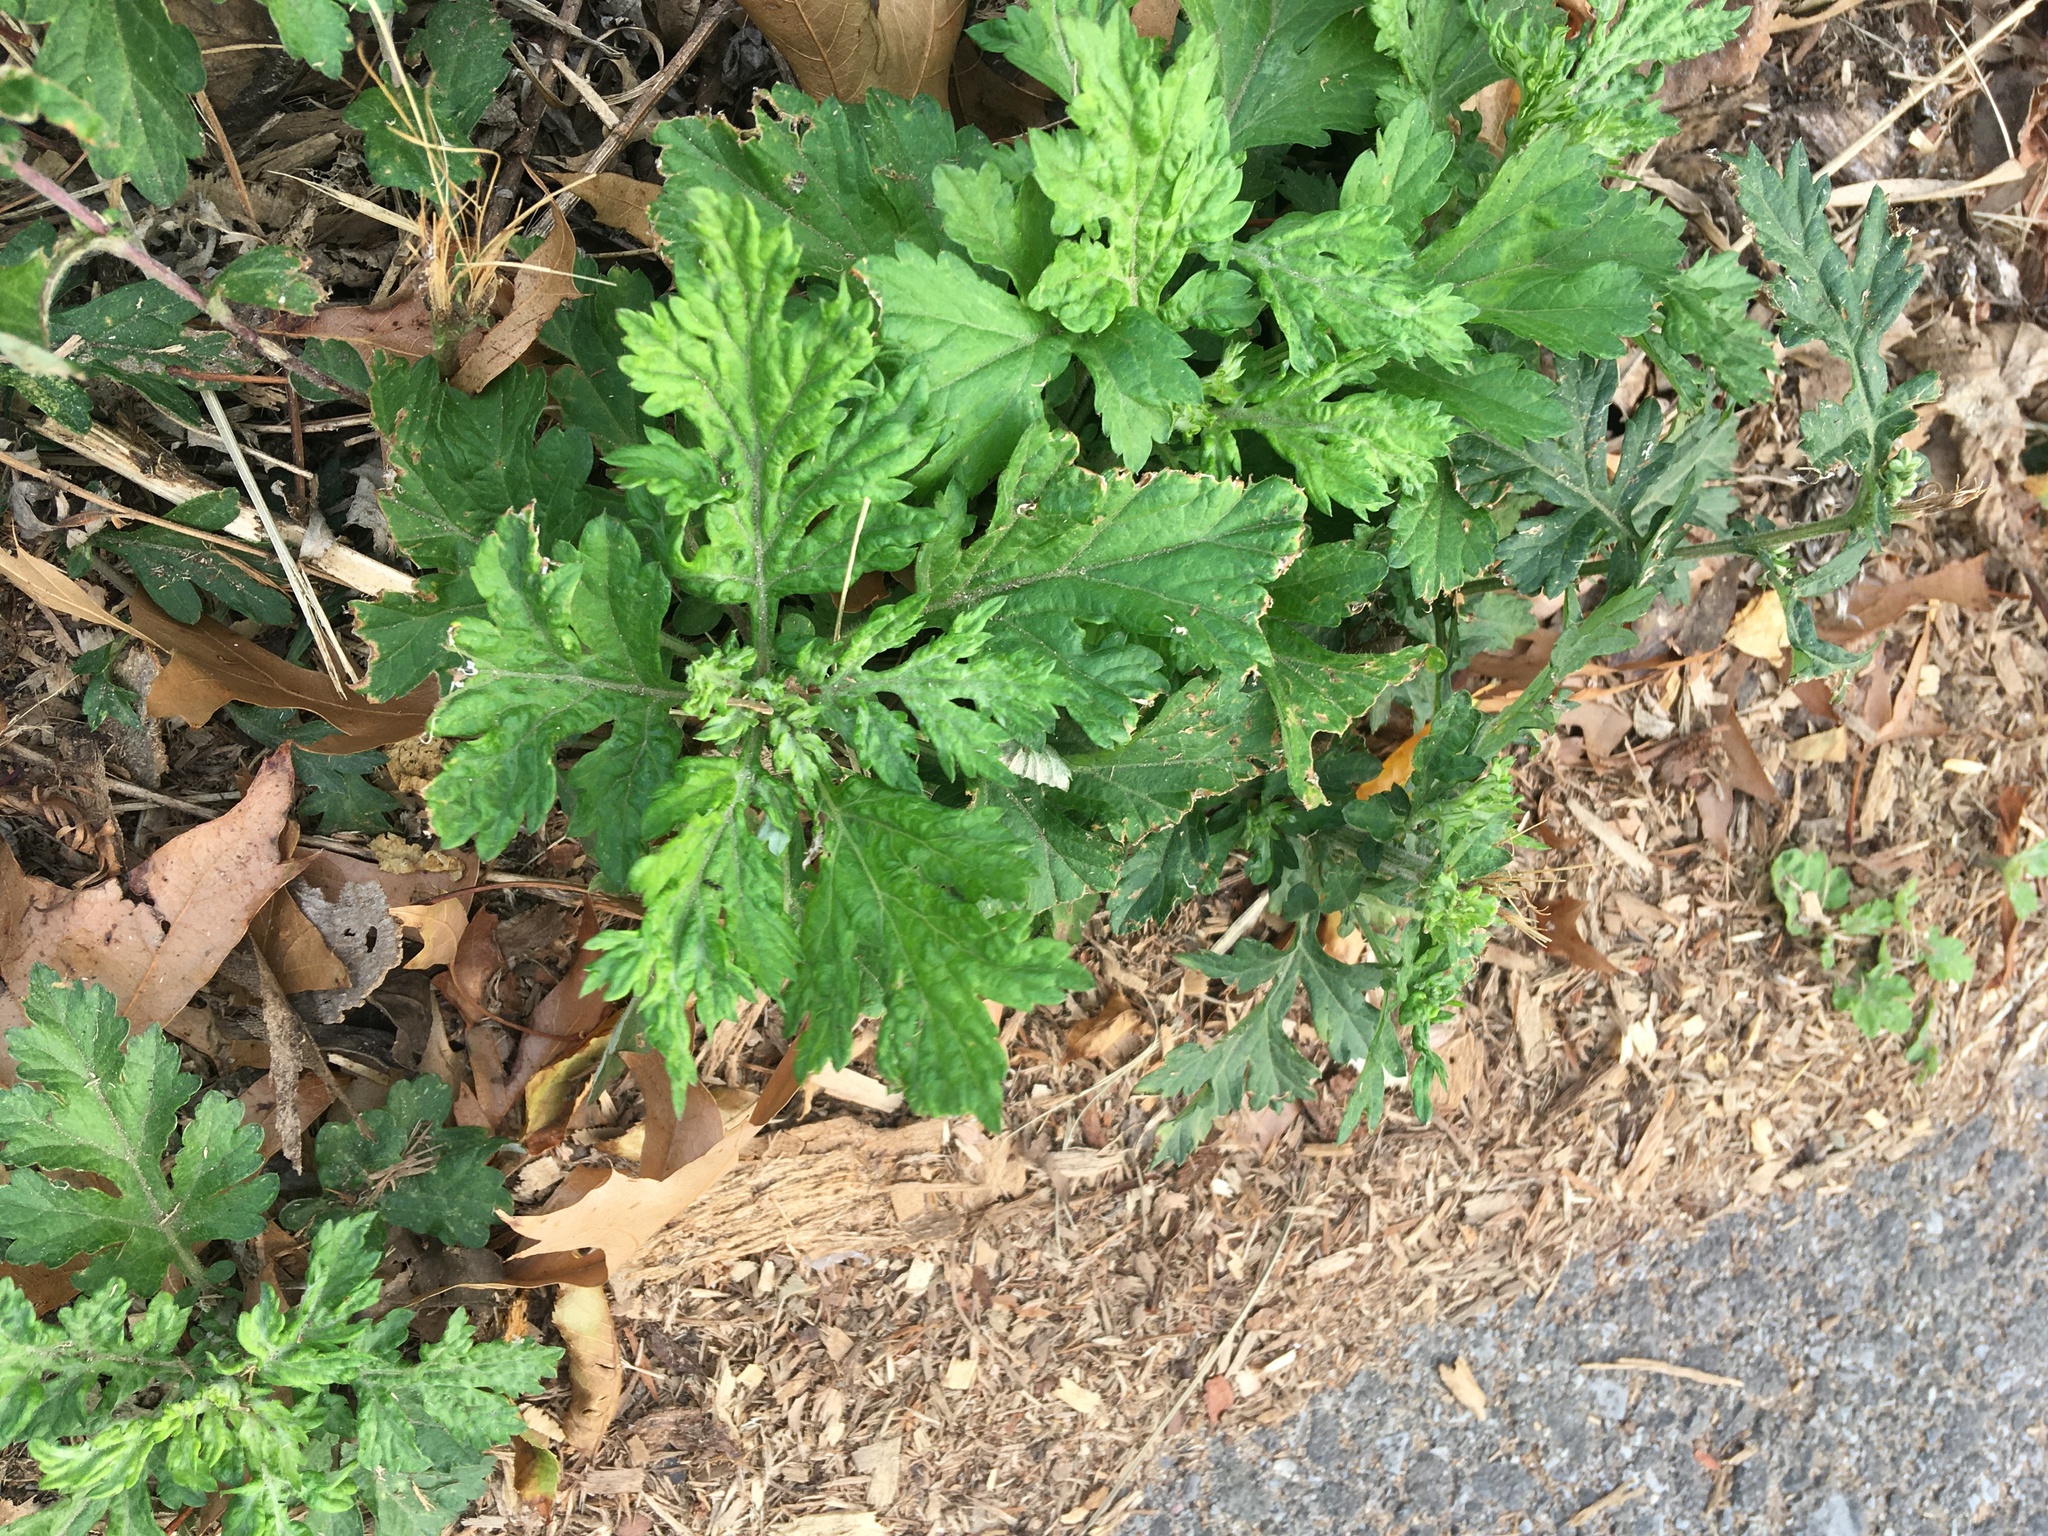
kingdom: Plantae
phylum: Tracheophyta
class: Magnoliopsida
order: Asterales
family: Asteraceae
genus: Artemisia
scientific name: Artemisia vulgaris
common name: Mugwort
